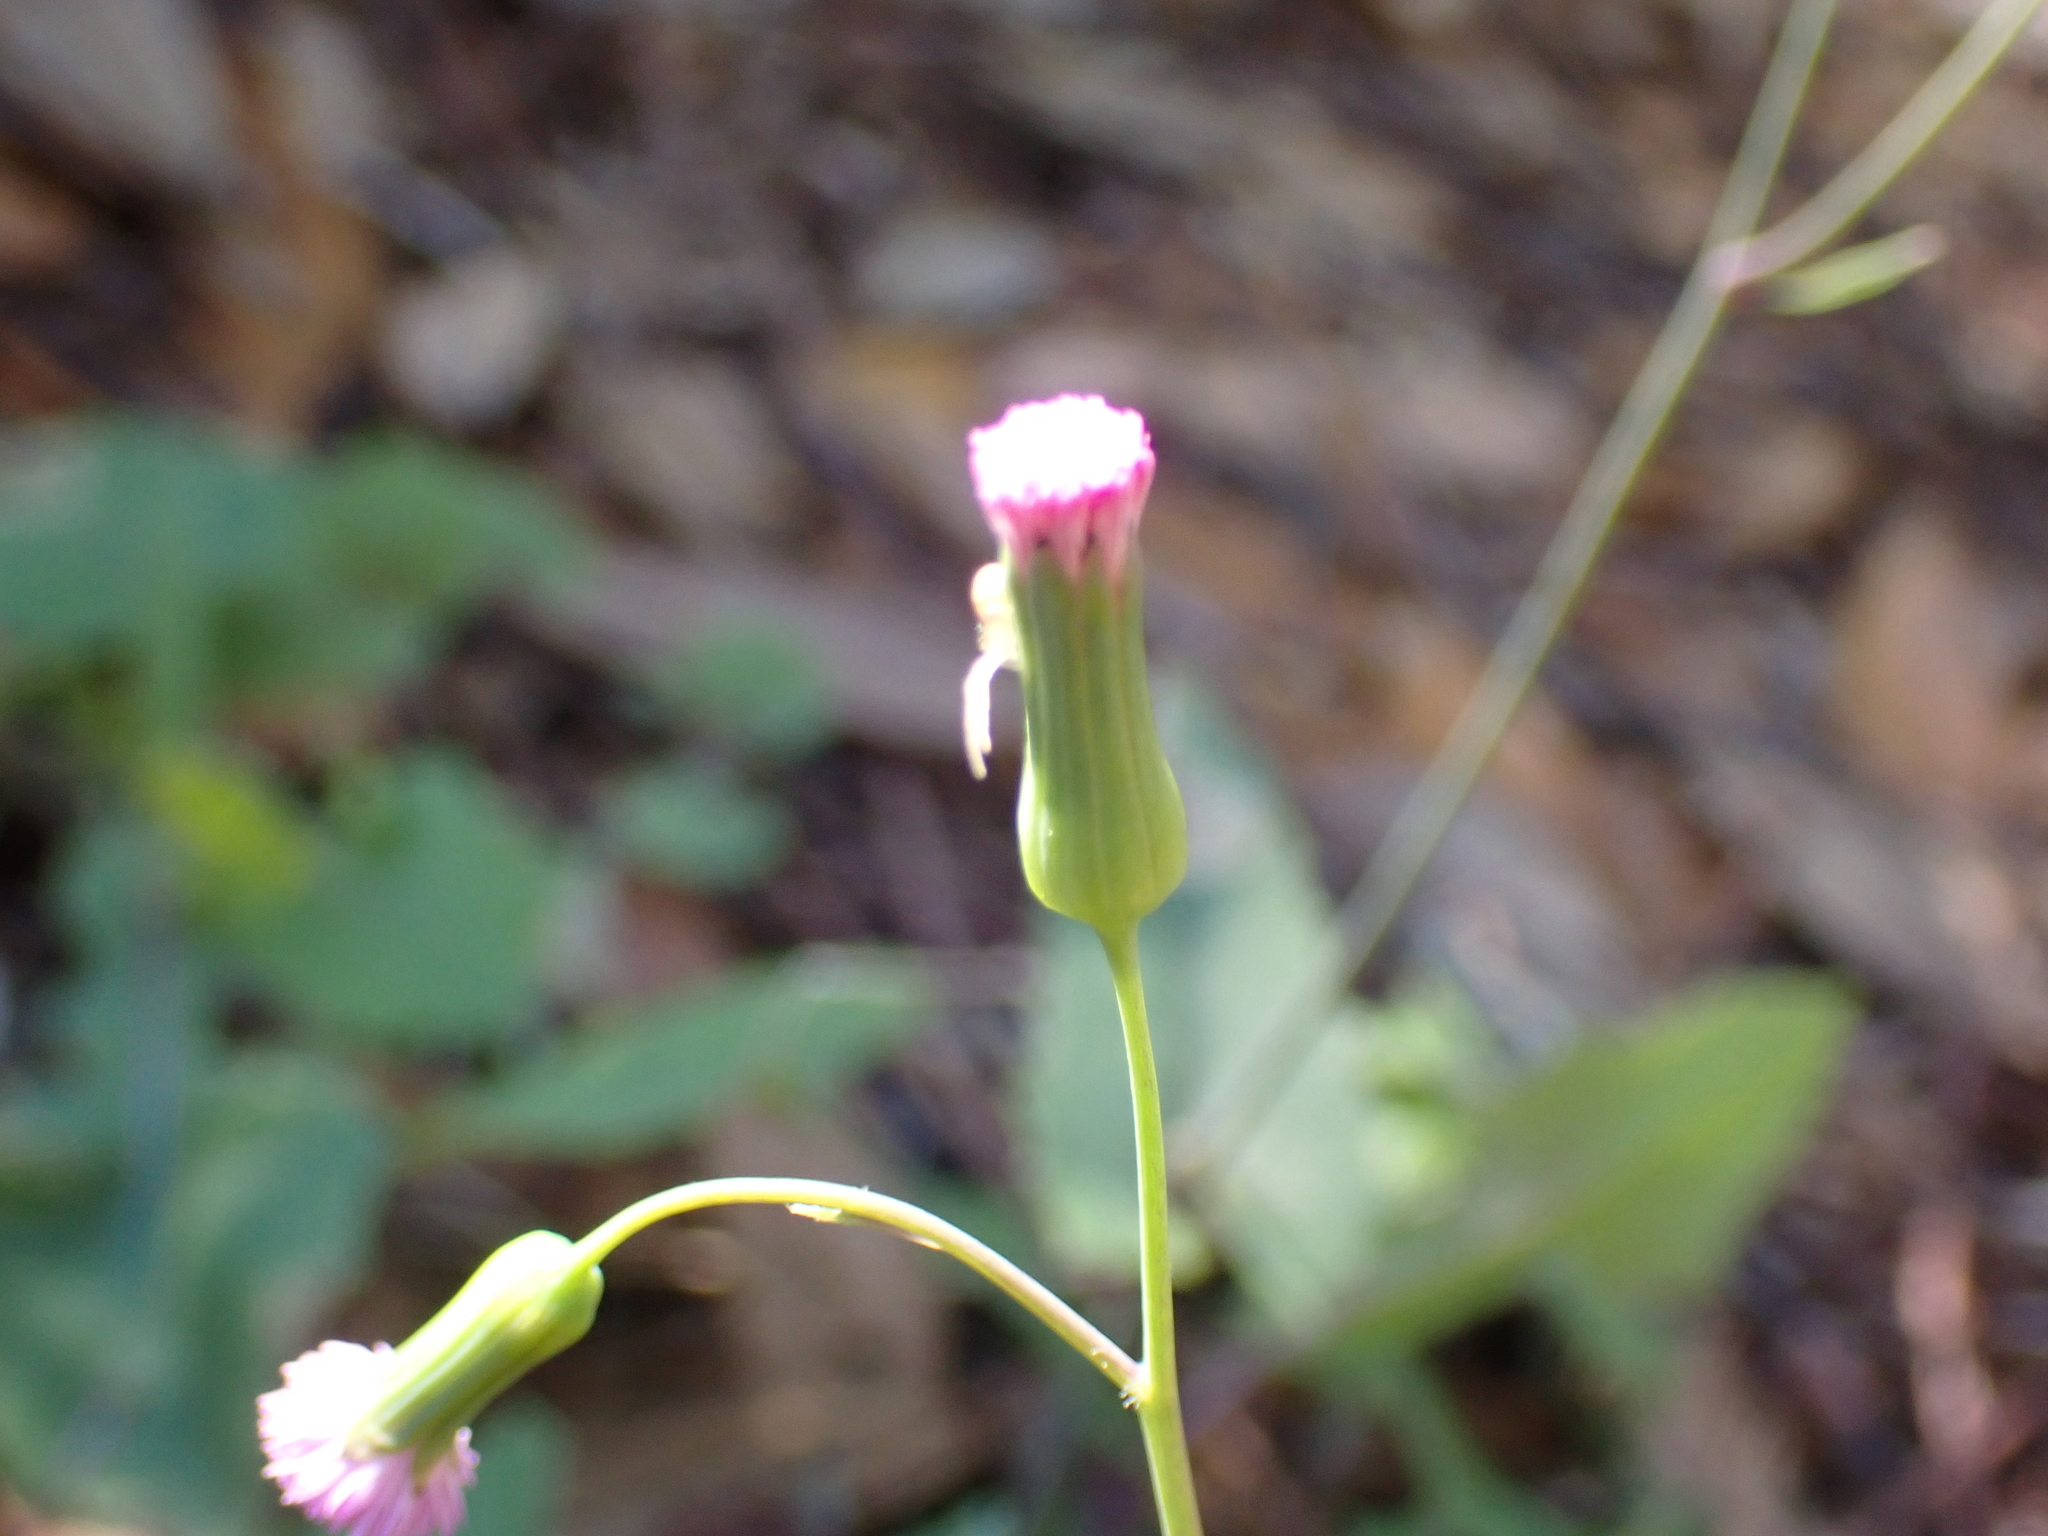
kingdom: Plantae
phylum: Tracheophyta
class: Magnoliopsida
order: Asterales
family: Asteraceae
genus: Emilia
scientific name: Emilia sonchifolia
